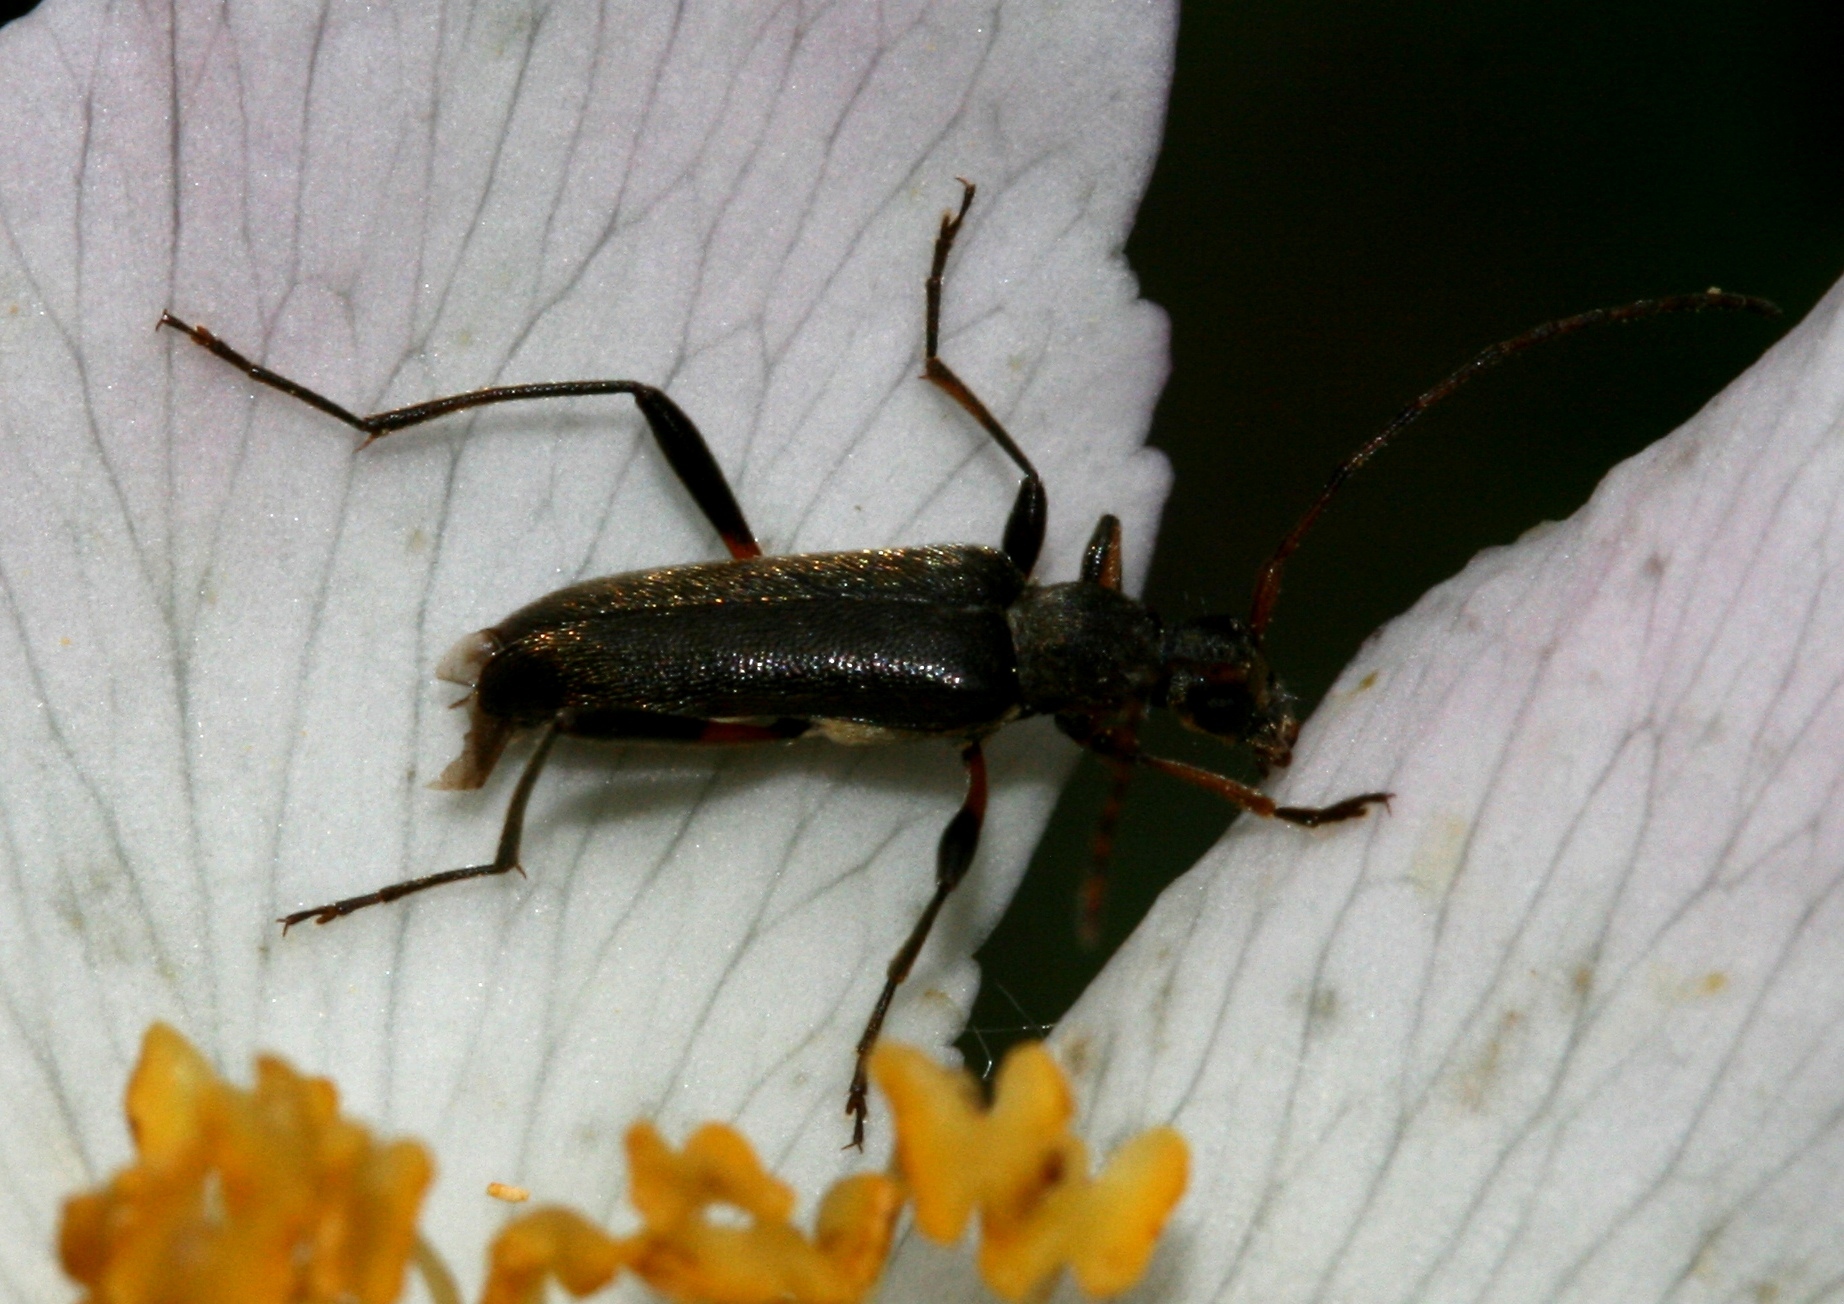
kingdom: Animalia
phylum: Arthropoda
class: Insecta
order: Coleoptera
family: Cerambycidae
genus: Grammoptera
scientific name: Grammoptera ruficornis
